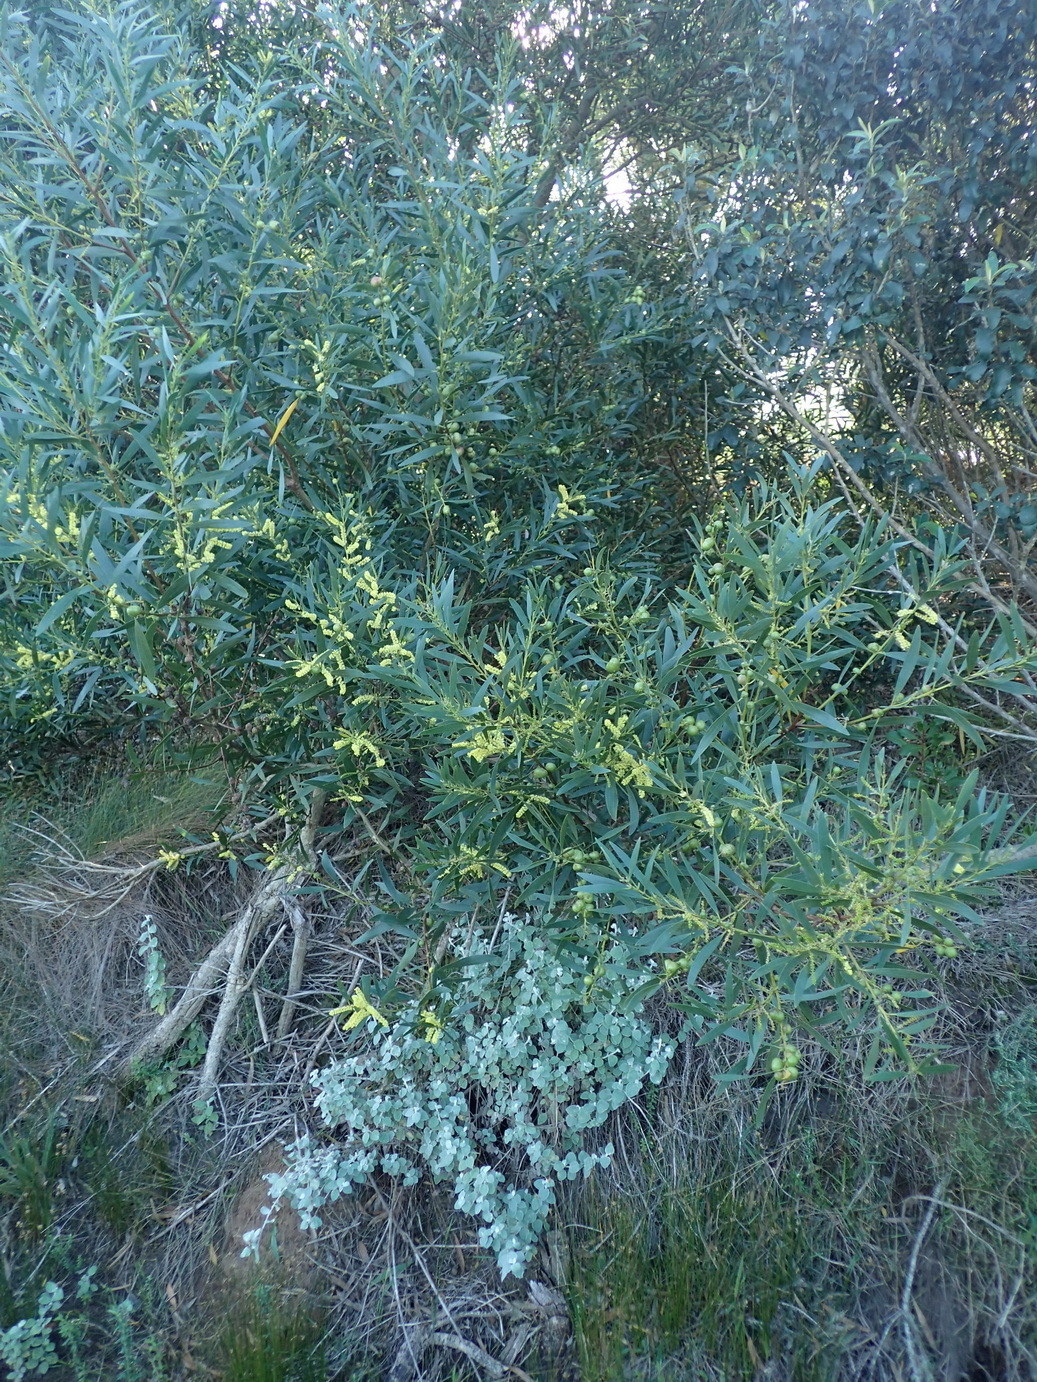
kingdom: Plantae
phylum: Tracheophyta
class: Magnoliopsida
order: Fabales
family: Fabaceae
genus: Acacia
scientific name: Acacia longifolia
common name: Sydney golden wattle
